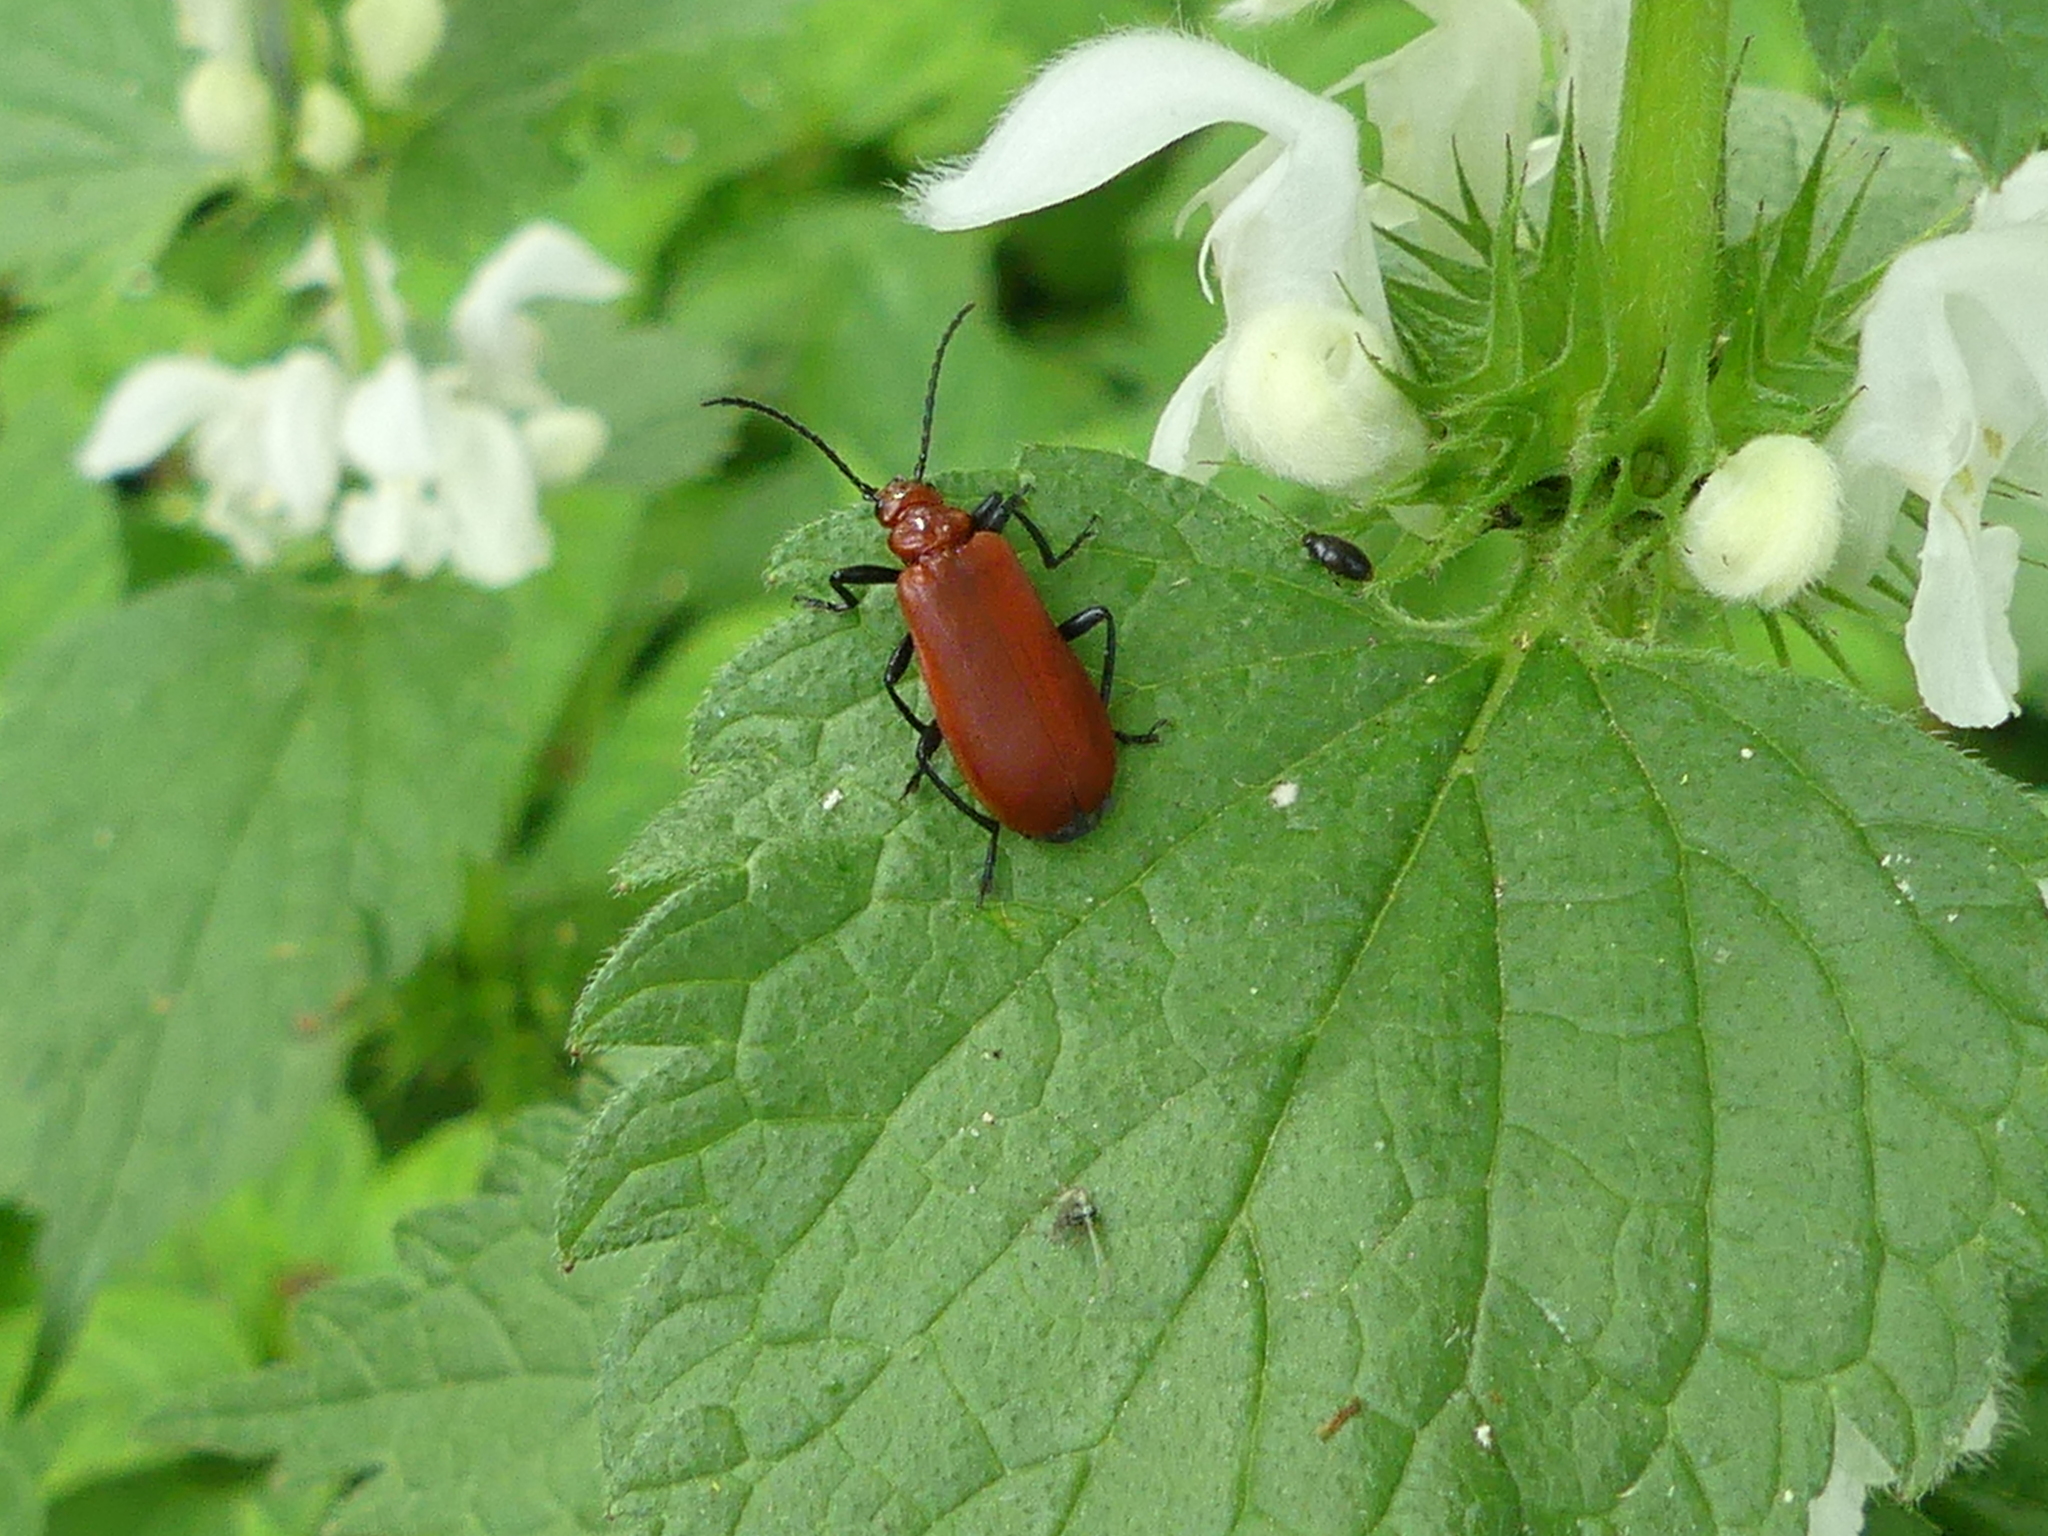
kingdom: Animalia
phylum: Arthropoda
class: Insecta
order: Coleoptera
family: Pyrochroidae
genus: Pyrochroa
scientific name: Pyrochroa serraticornis
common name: Red-headed cardinal beetle
